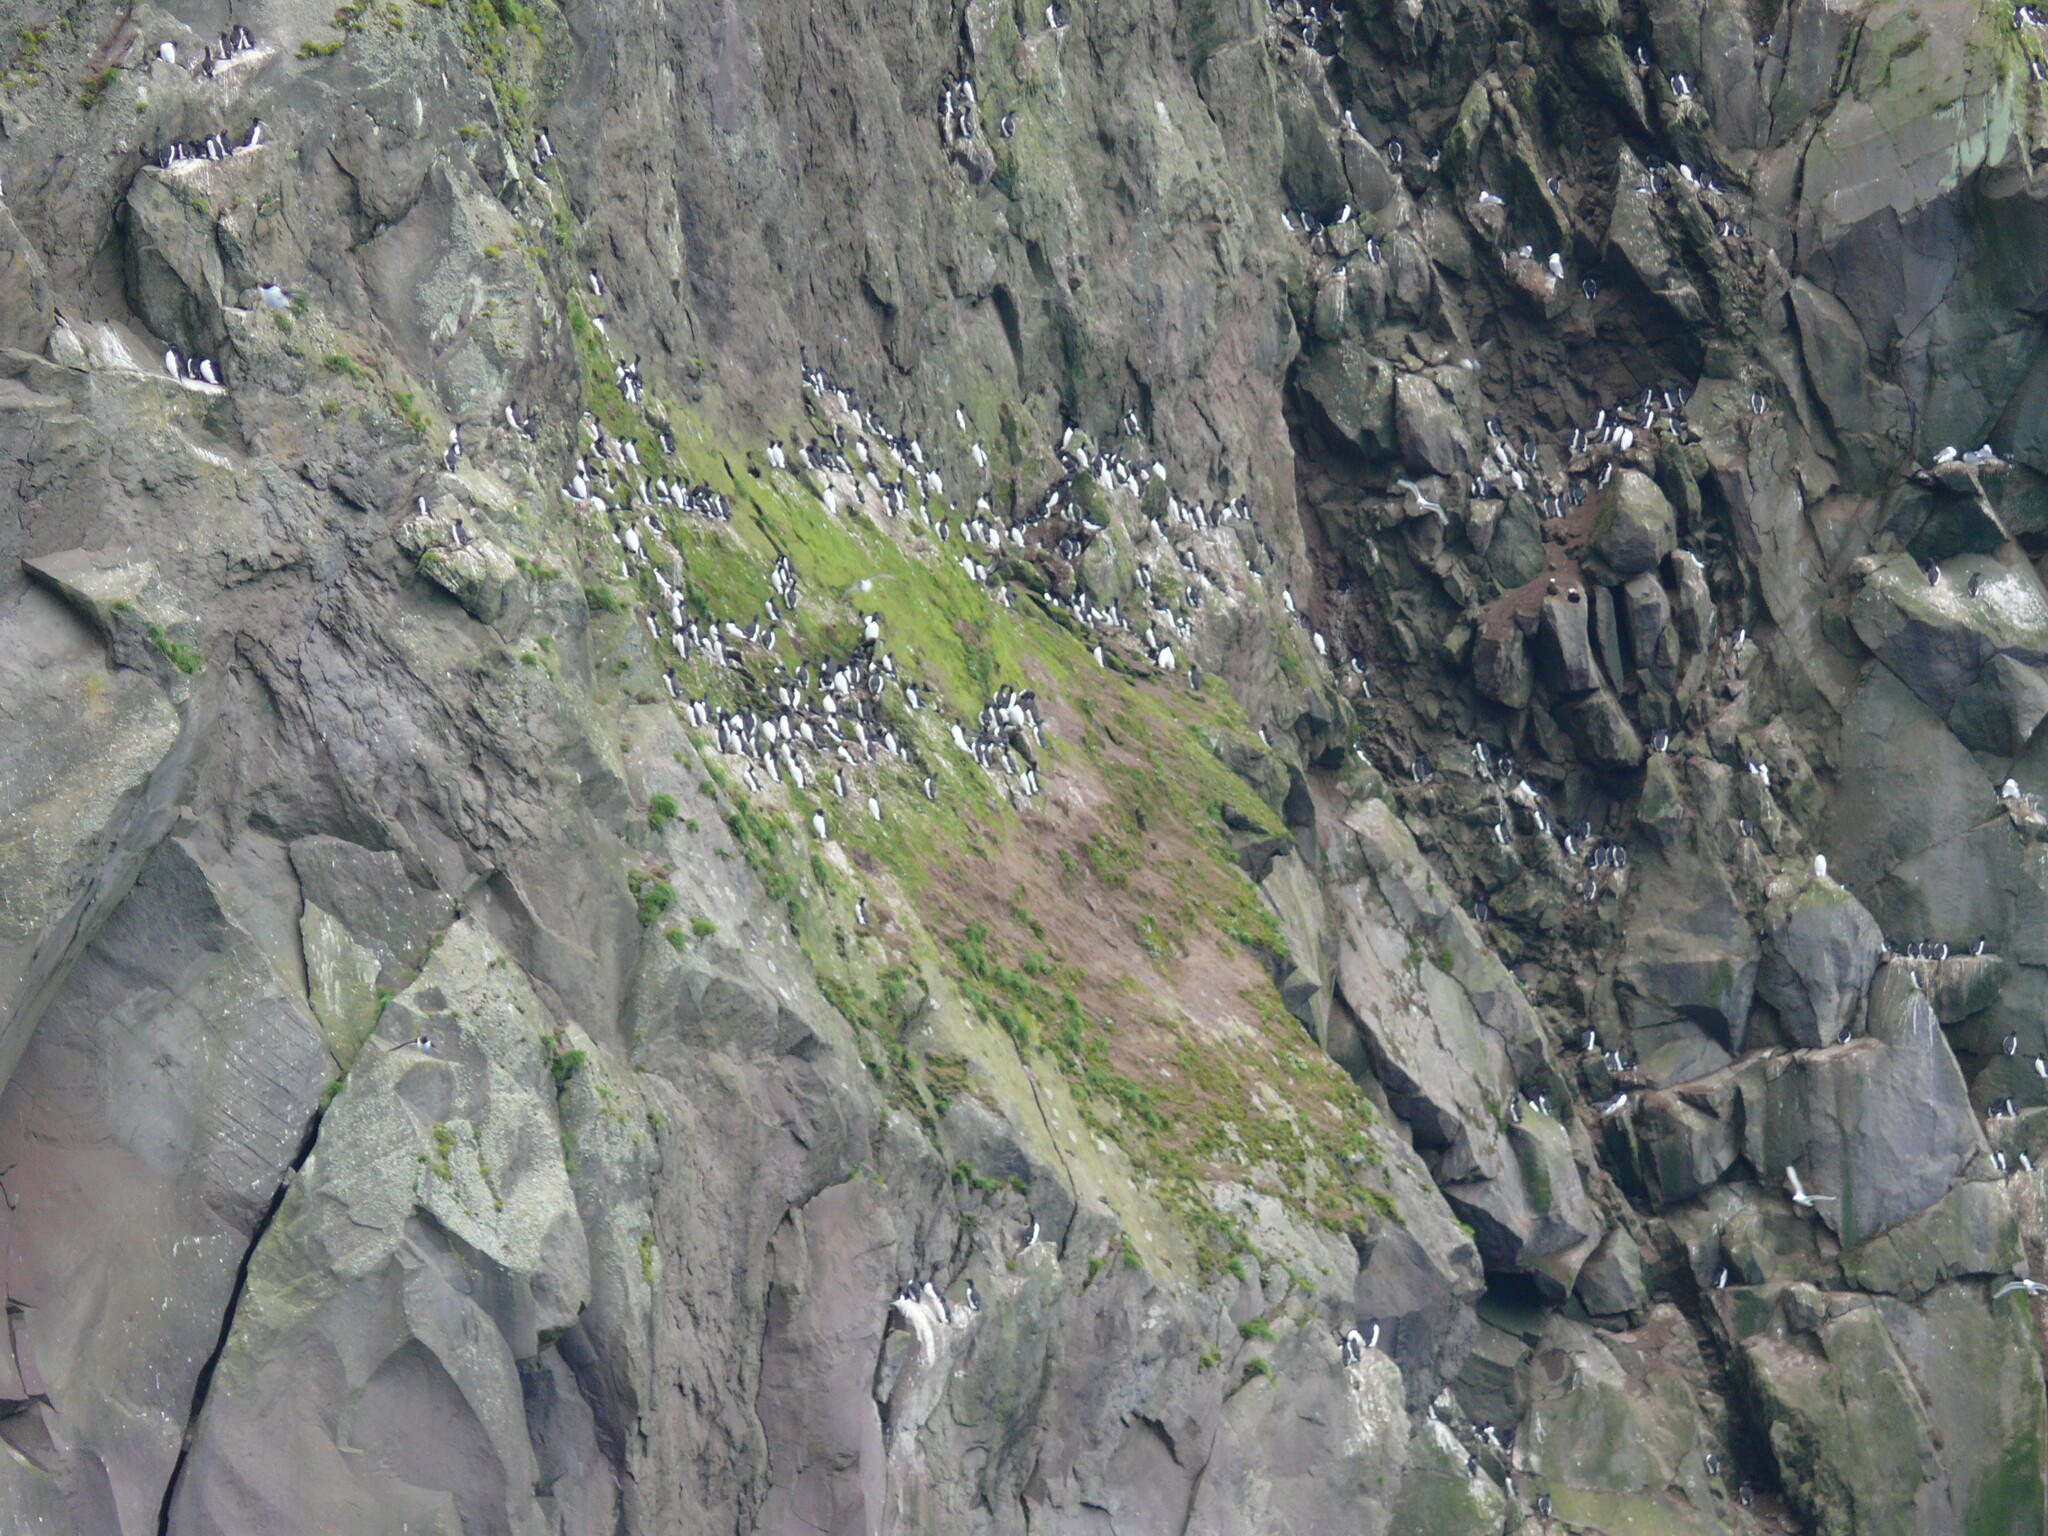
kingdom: Animalia
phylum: Chordata
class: Aves
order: Charadriiformes
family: Alcidae
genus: Uria
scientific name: Uria aalge
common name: Common murre
